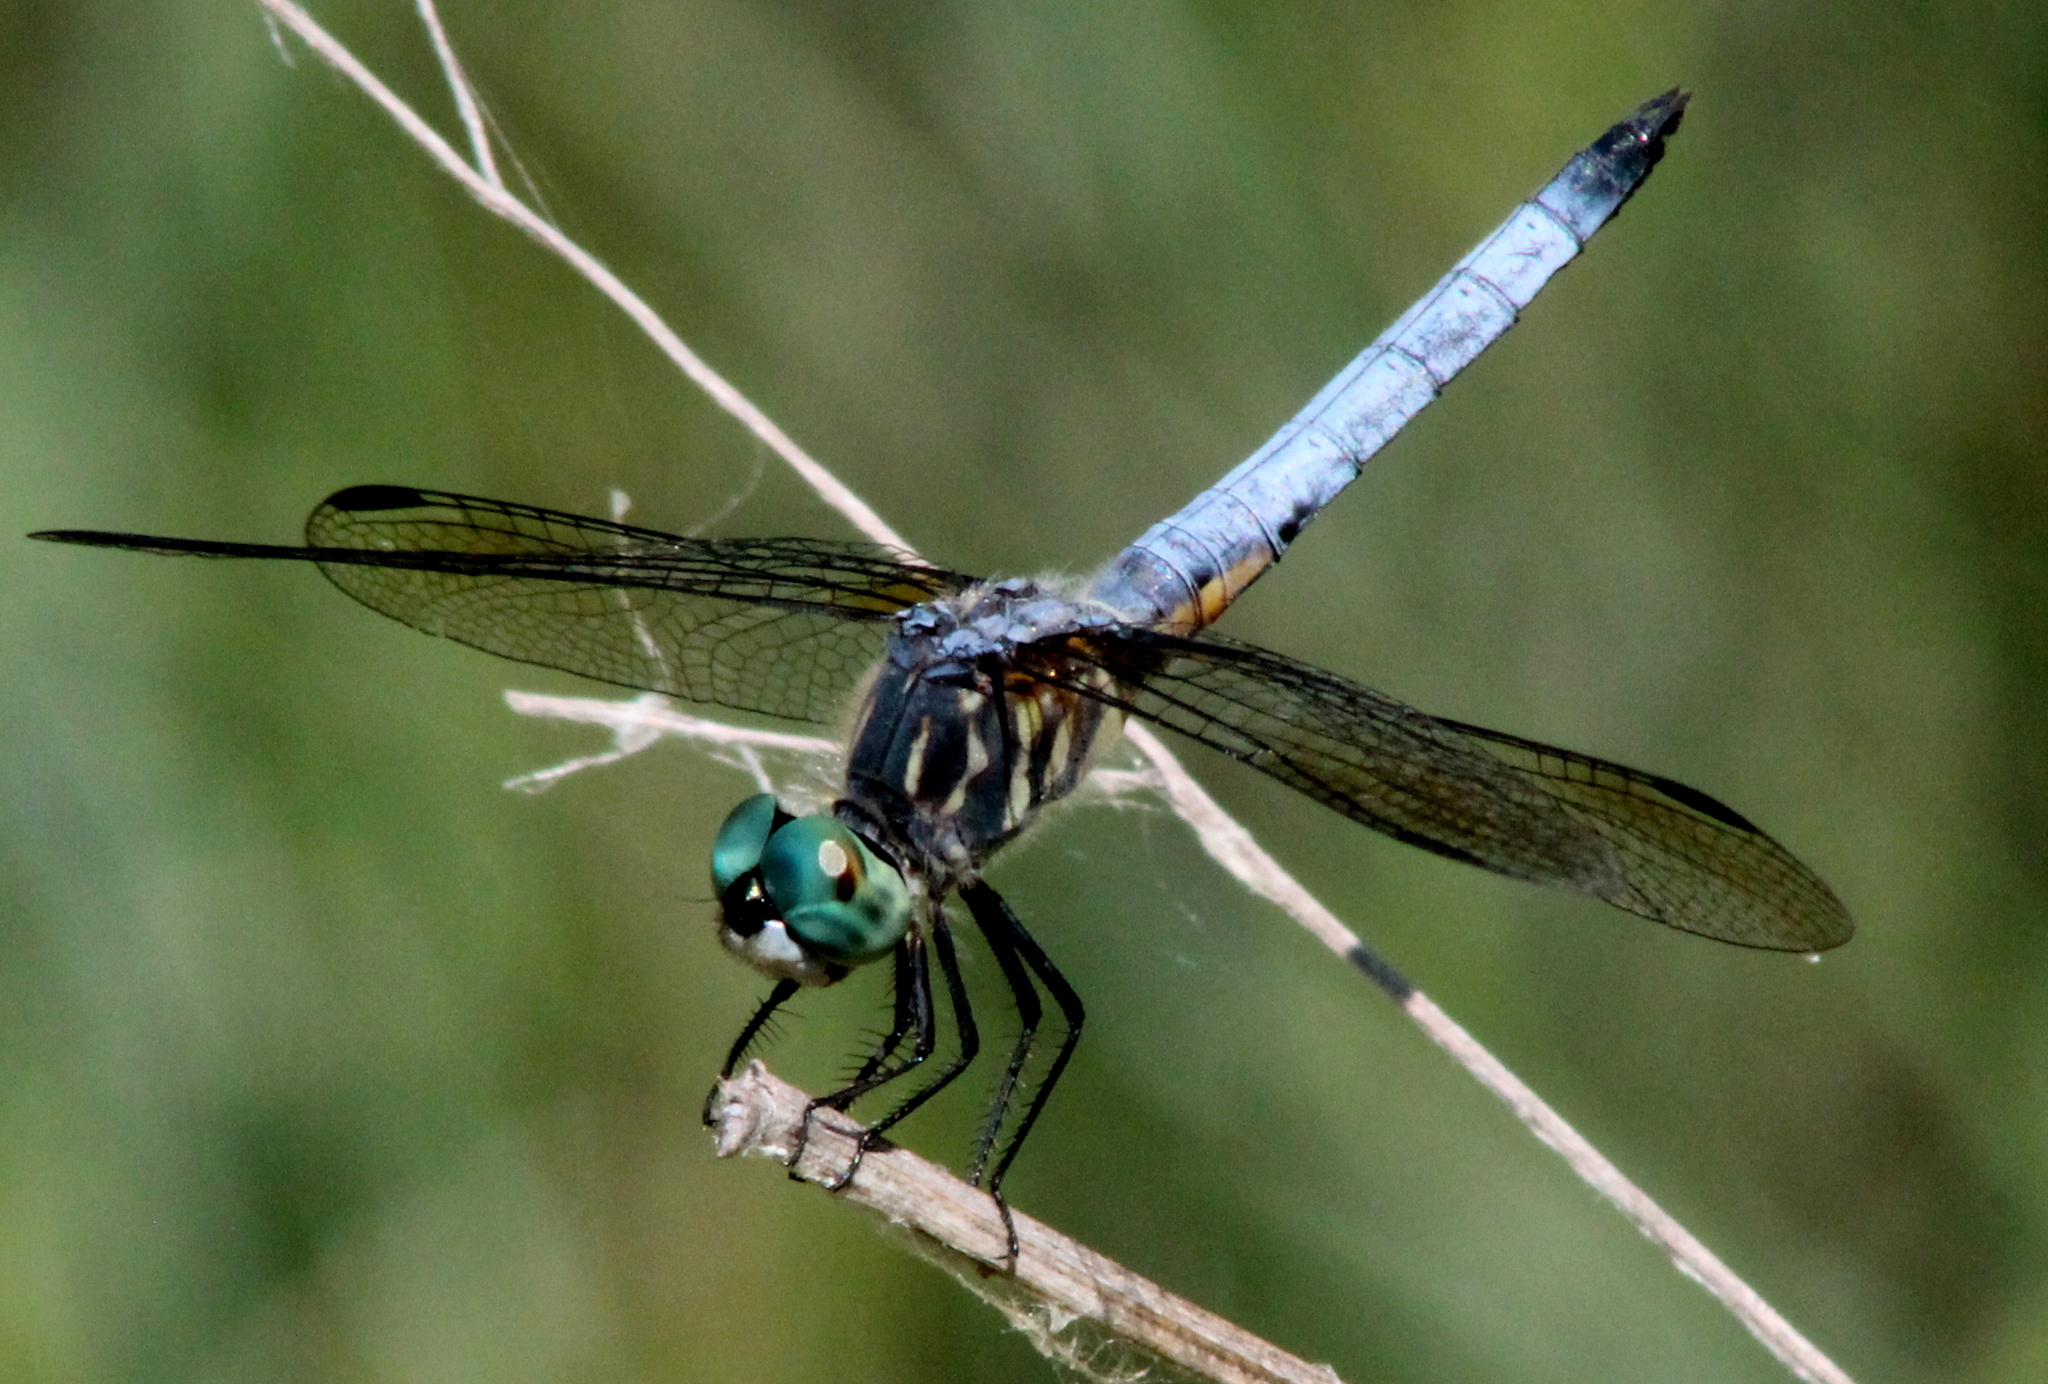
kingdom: Animalia
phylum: Arthropoda
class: Insecta
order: Odonata
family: Libellulidae
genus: Pachydiplax
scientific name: Pachydiplax longipennis
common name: Blue dasher
